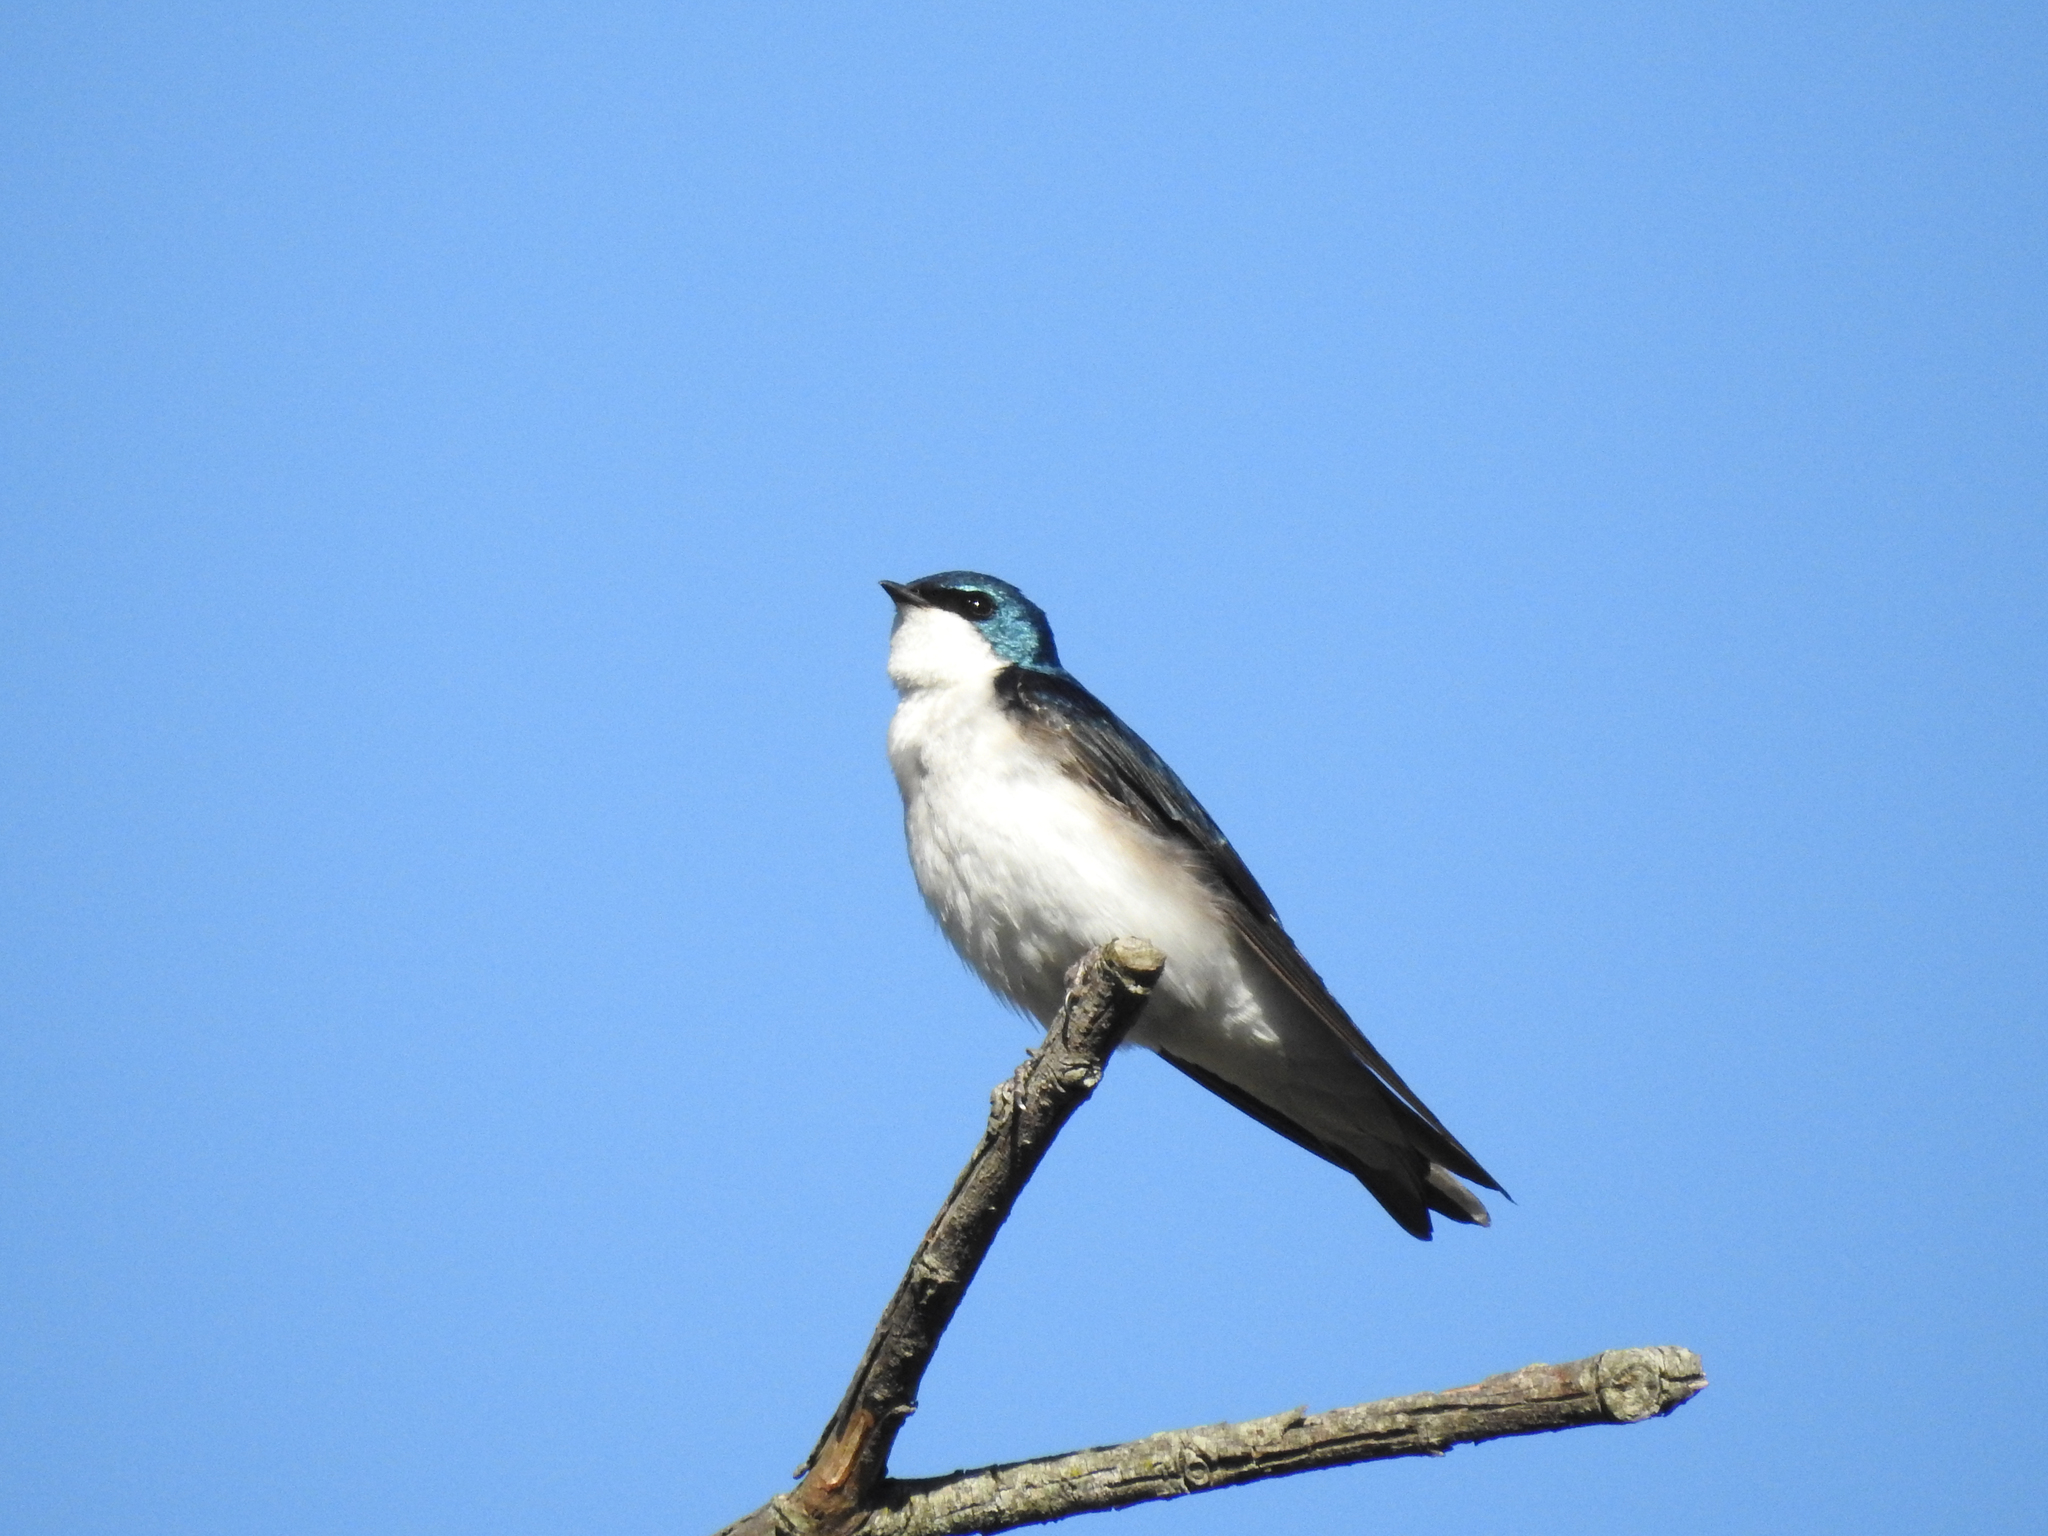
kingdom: Animalia
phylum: Chordata
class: Aves
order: Passeriformes
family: Hirundinidae
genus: Tachycineta
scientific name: Tachycineta bicolor
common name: Tree swallow
